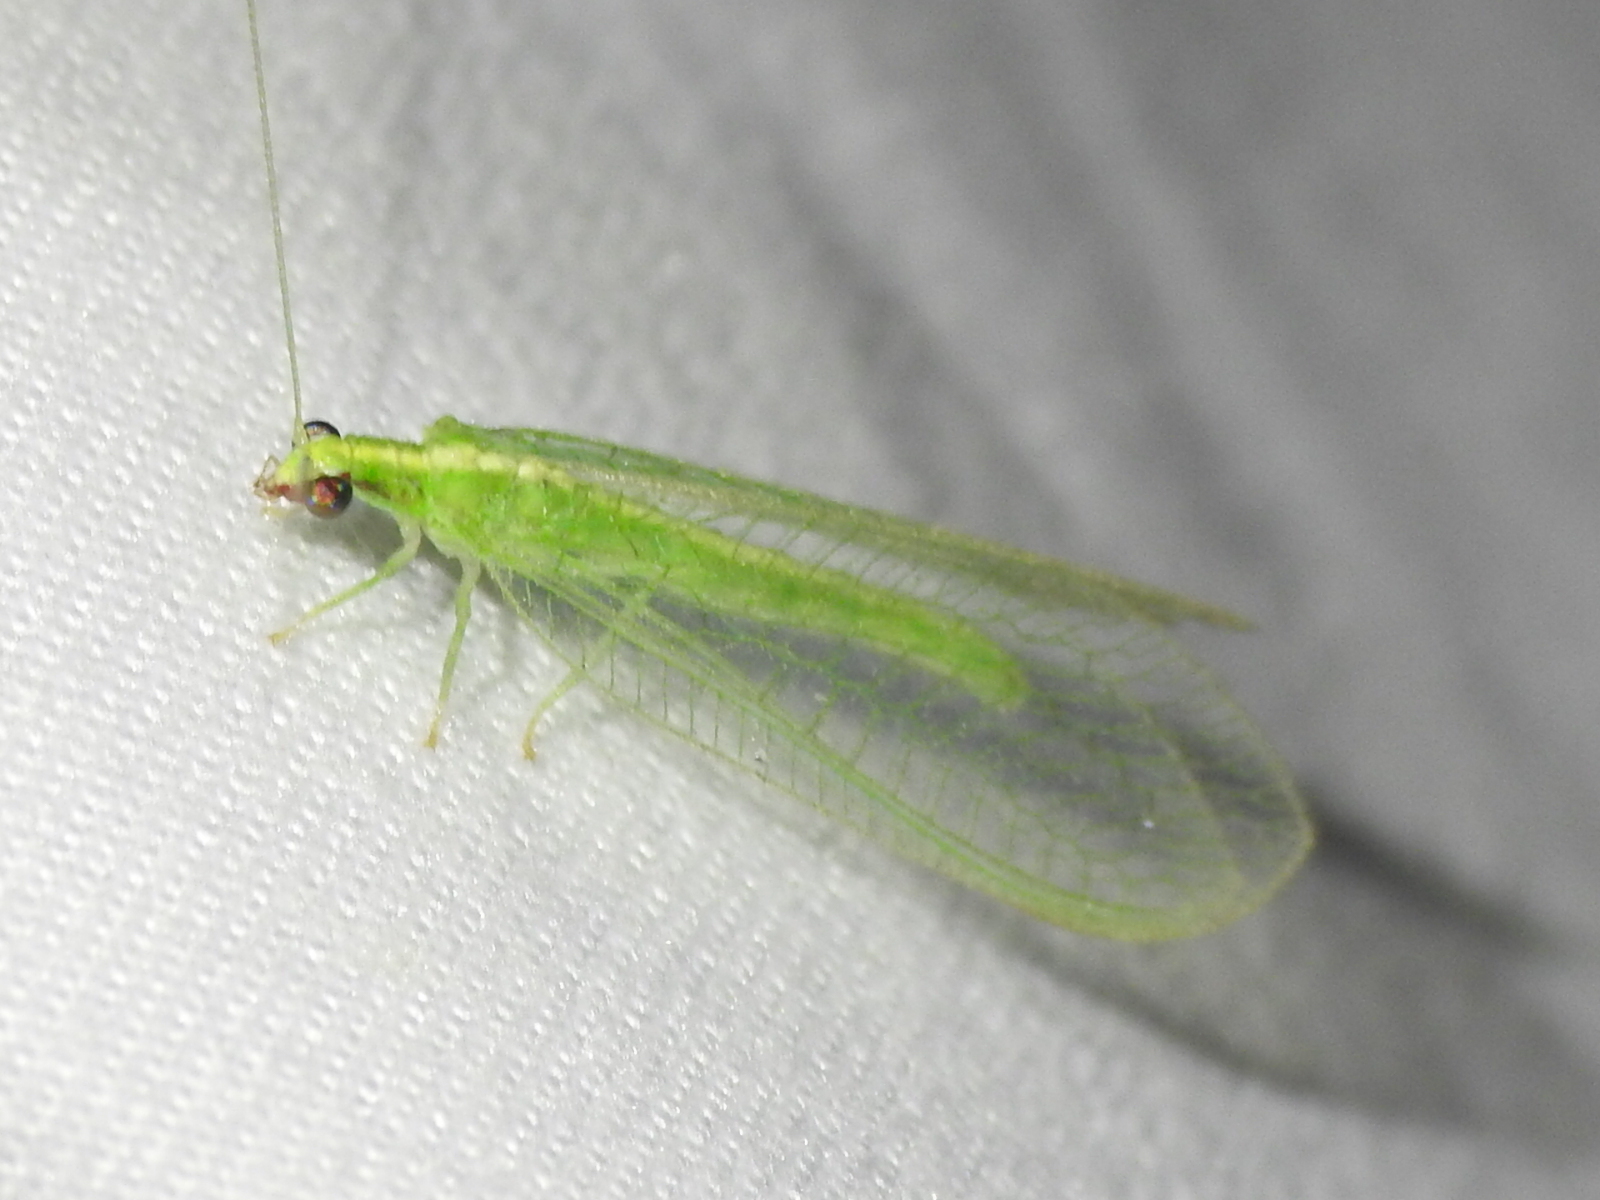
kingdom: Animalia
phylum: Arthropoda
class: Insecta
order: Neuroptera
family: Chrysopidae
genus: Chrysoperla
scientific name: Chrysoperla rufilabris
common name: Red-lipped green lacewing
